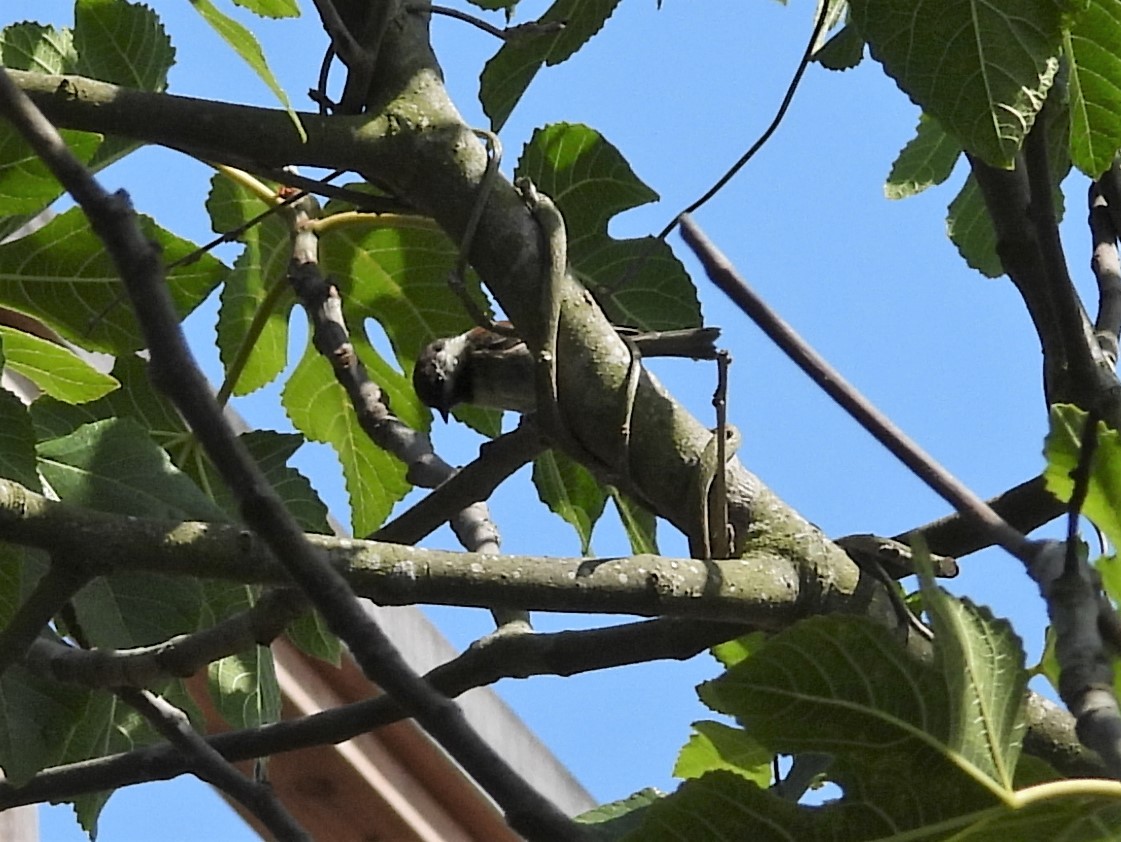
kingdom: Animalia
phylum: Chordata
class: Aves
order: Passeriformes
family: Paridae
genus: Poecile
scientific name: Poecile rufescens
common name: Chestnut-backed chickadee
